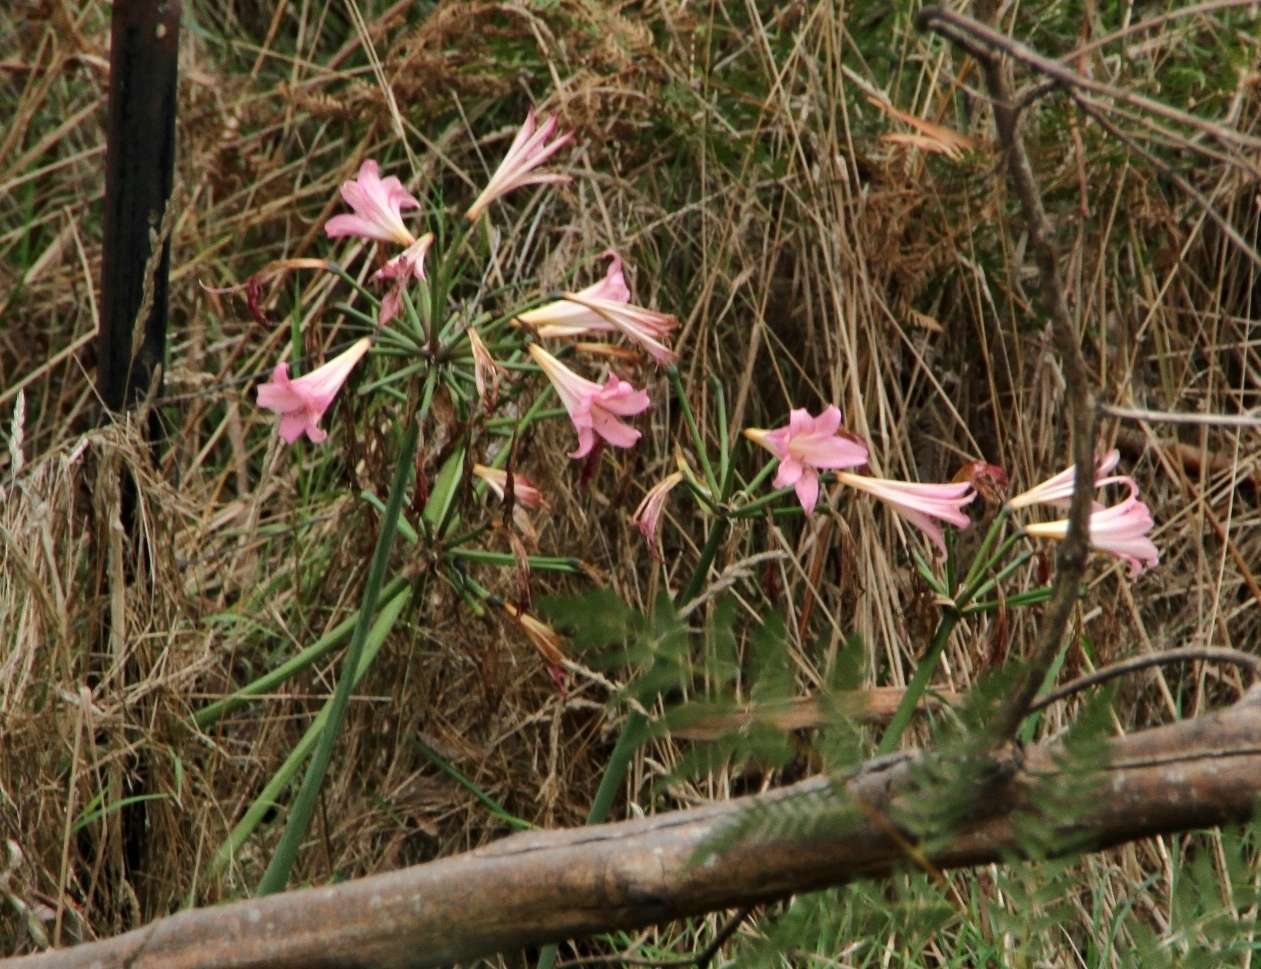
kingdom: Plantae
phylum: Tracheophyta
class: Liliopsida
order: Asparagales
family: Amaryllidaceae
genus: Amaryllis
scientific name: Amaryllis belladonna
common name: Jersey lily
